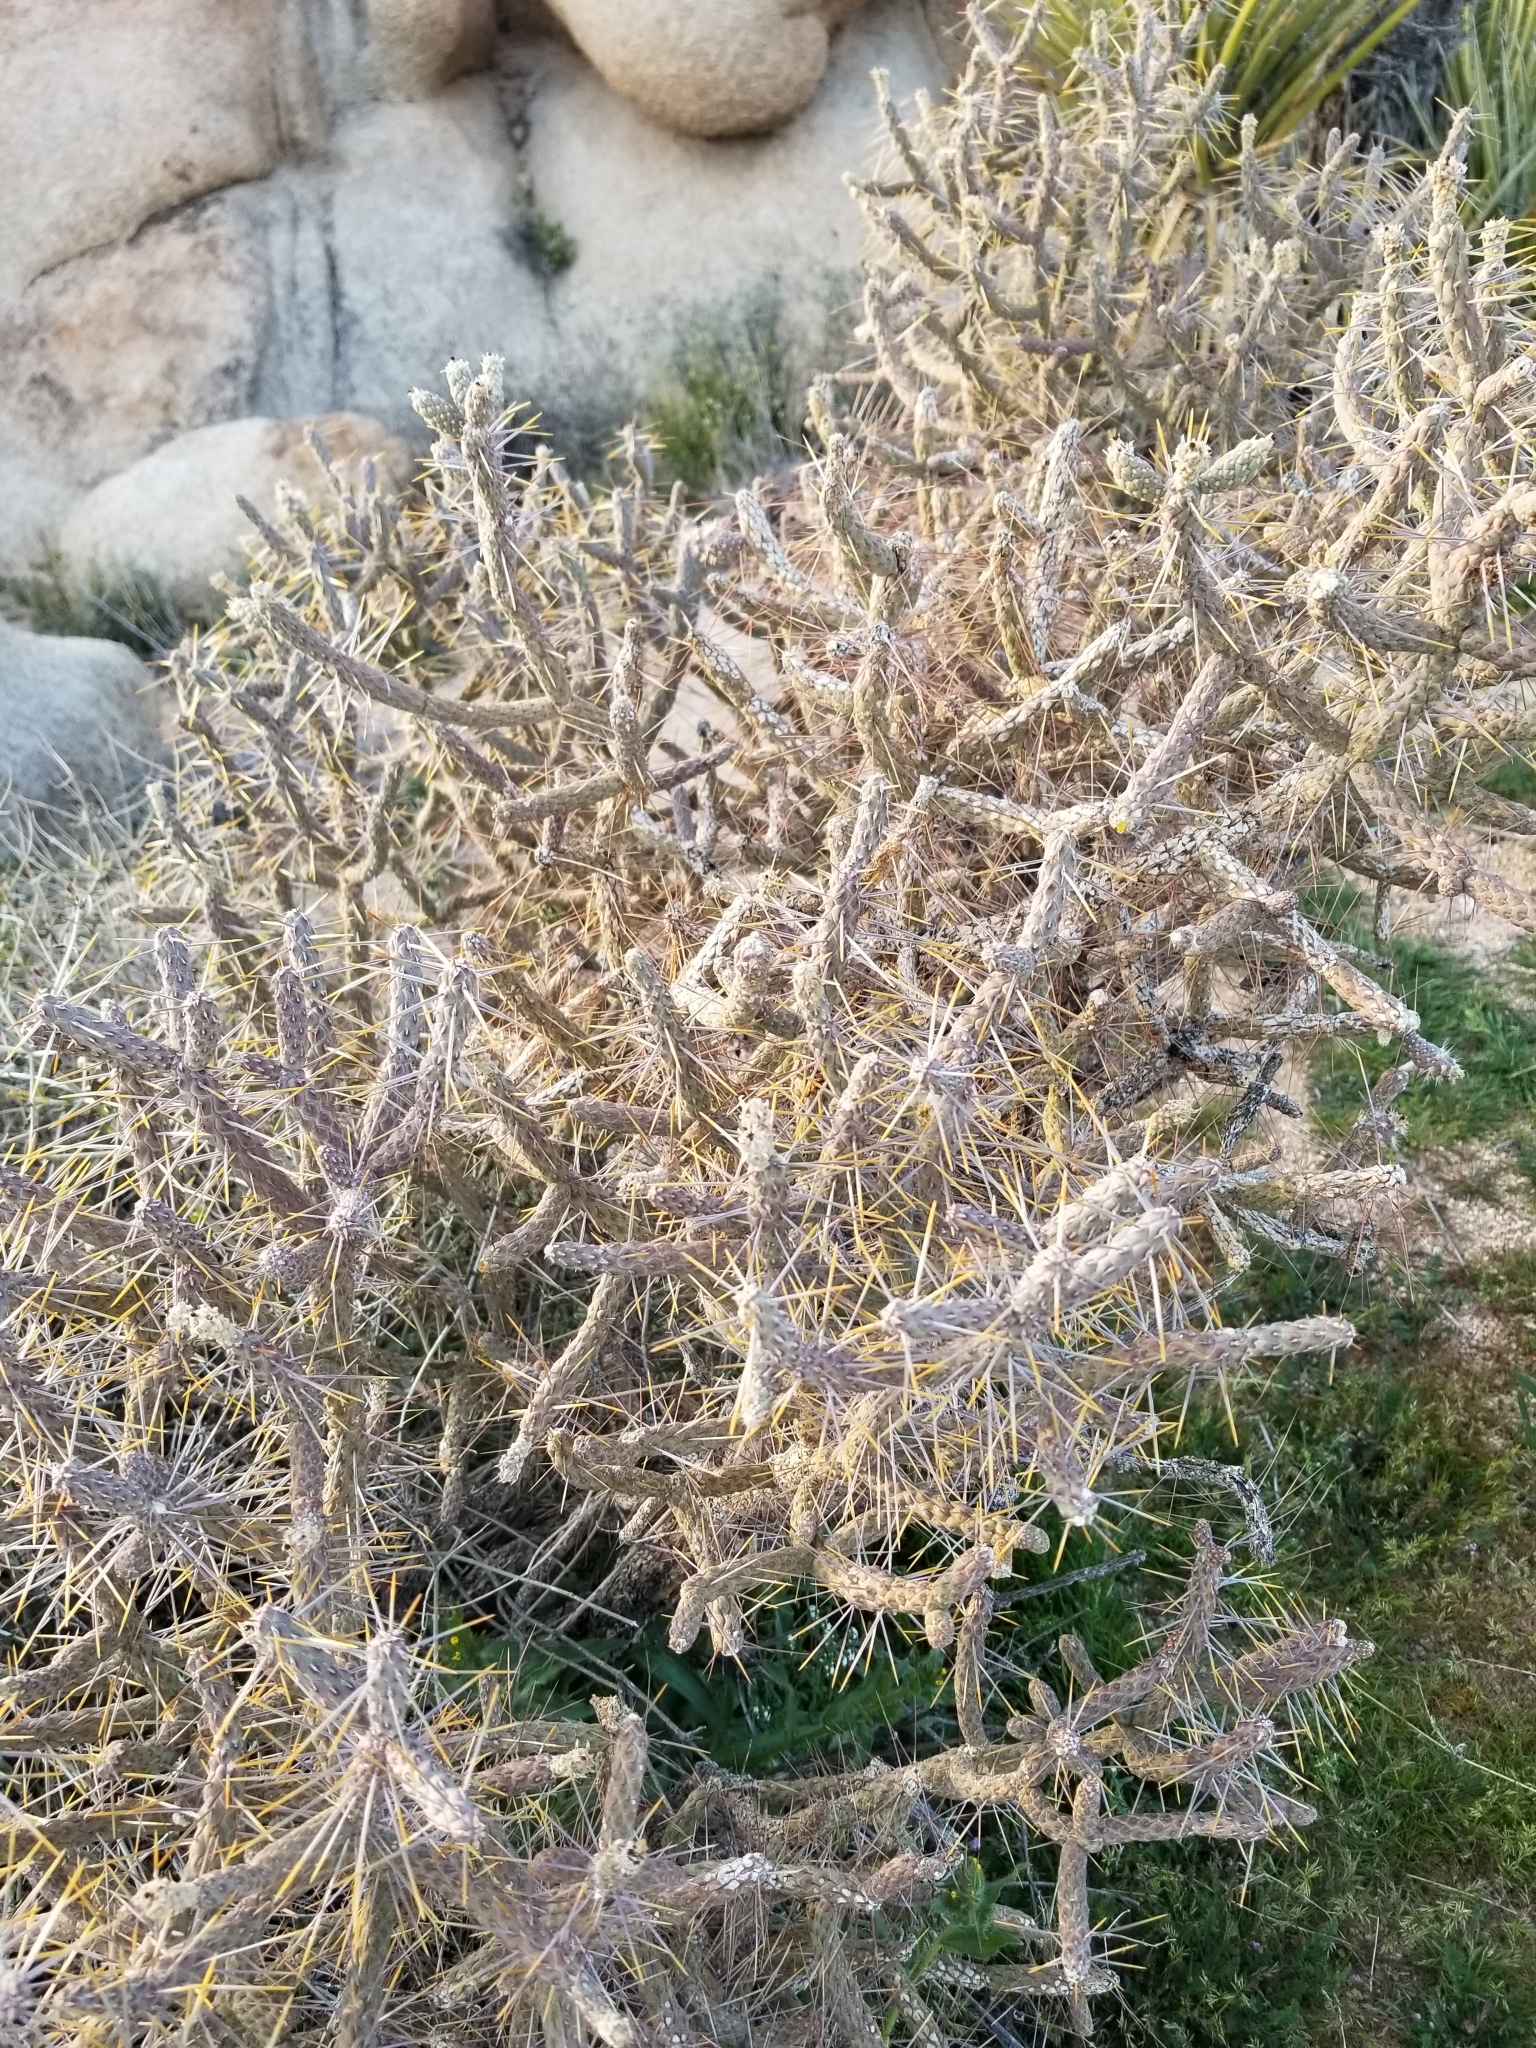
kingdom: Plantae
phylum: Tracheophyta
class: Magnoliopsida
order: Caryophyllales
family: Cactaceae
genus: Cylindropuntia
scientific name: Cylindropuntia ramosissima
